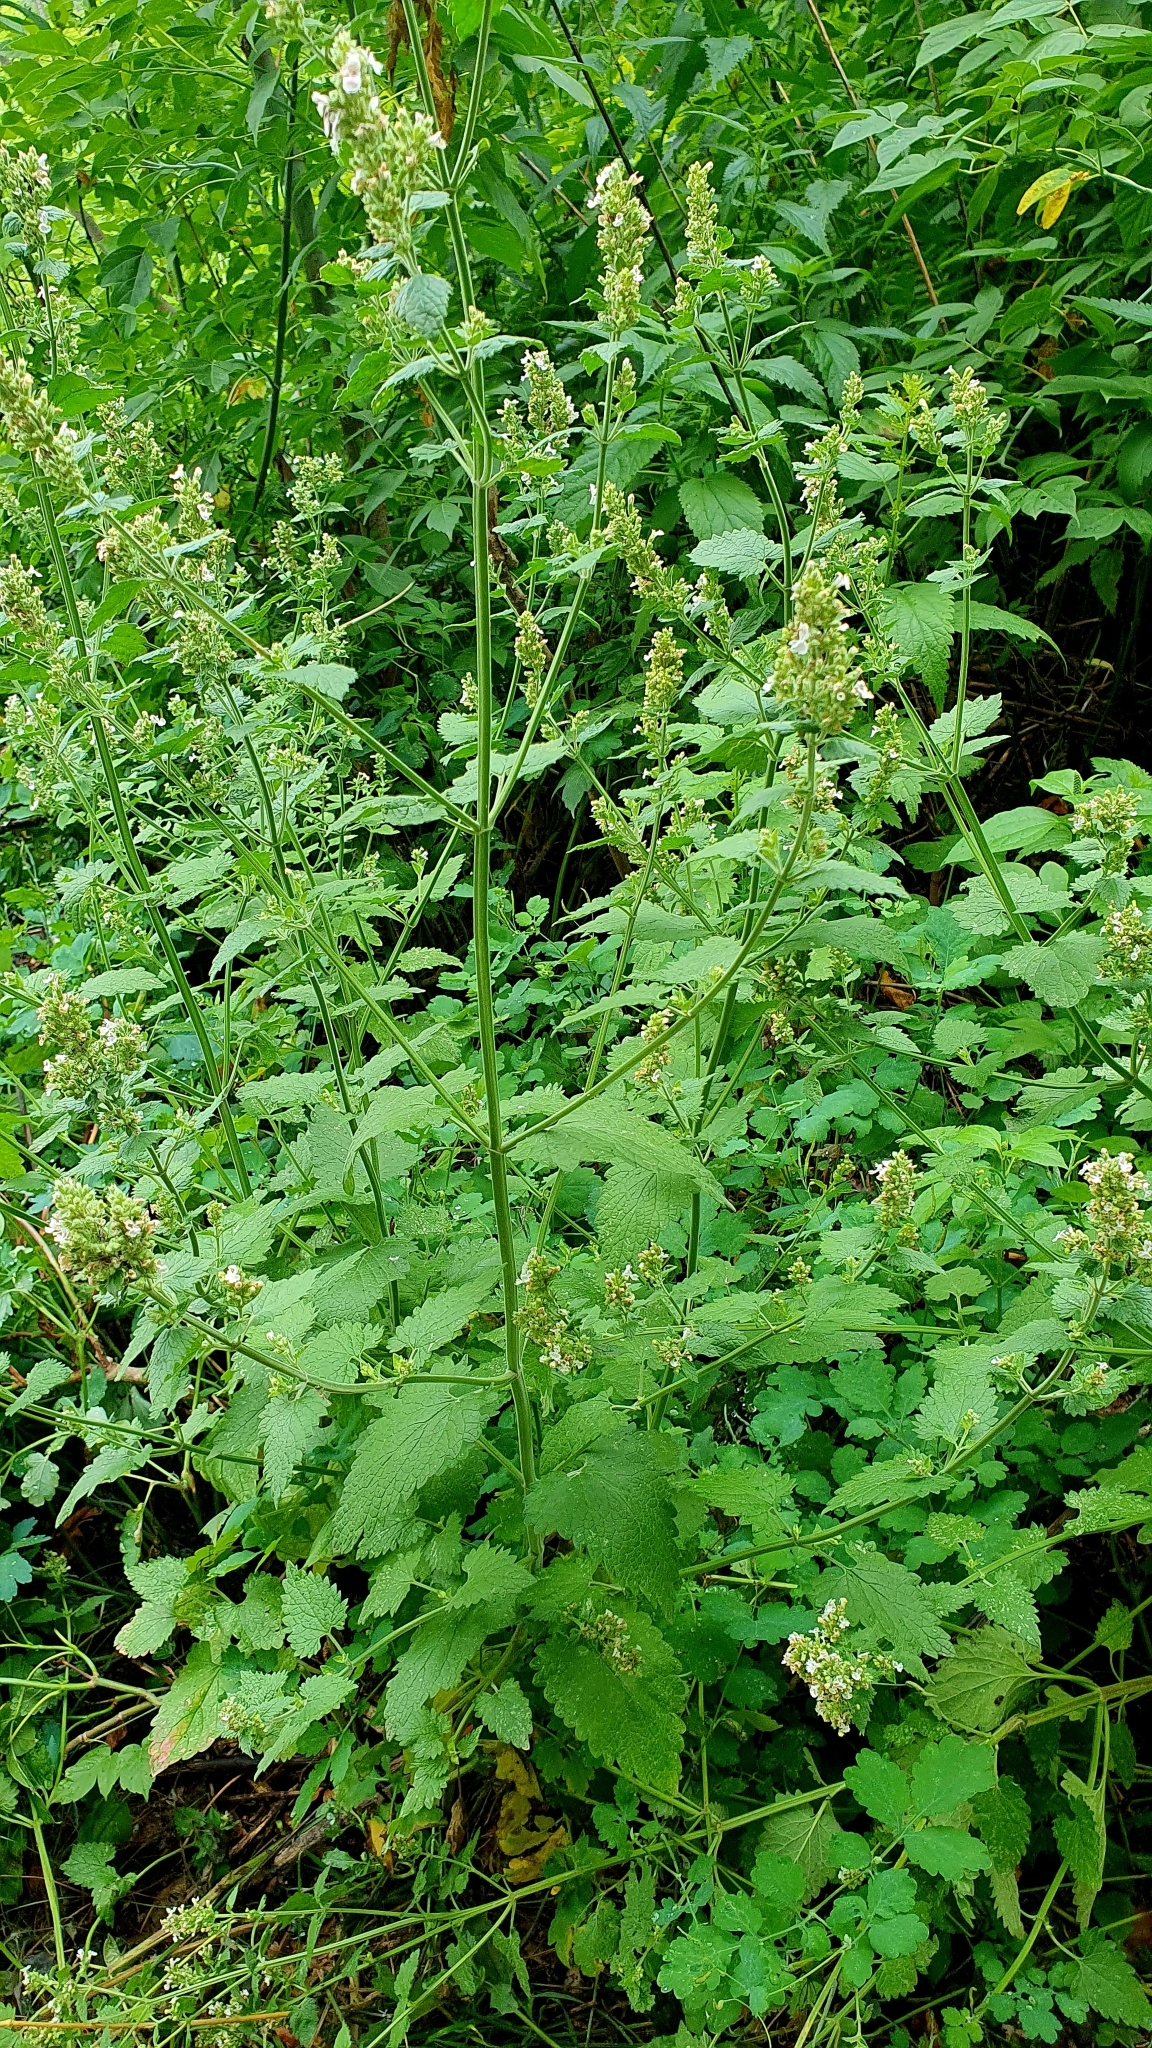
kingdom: Plantae
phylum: Tracheophyta
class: Magnoliopsida
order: Lamiales
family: Lamiaceae
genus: Nepeta
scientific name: Nepeta cataria
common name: Catnip
